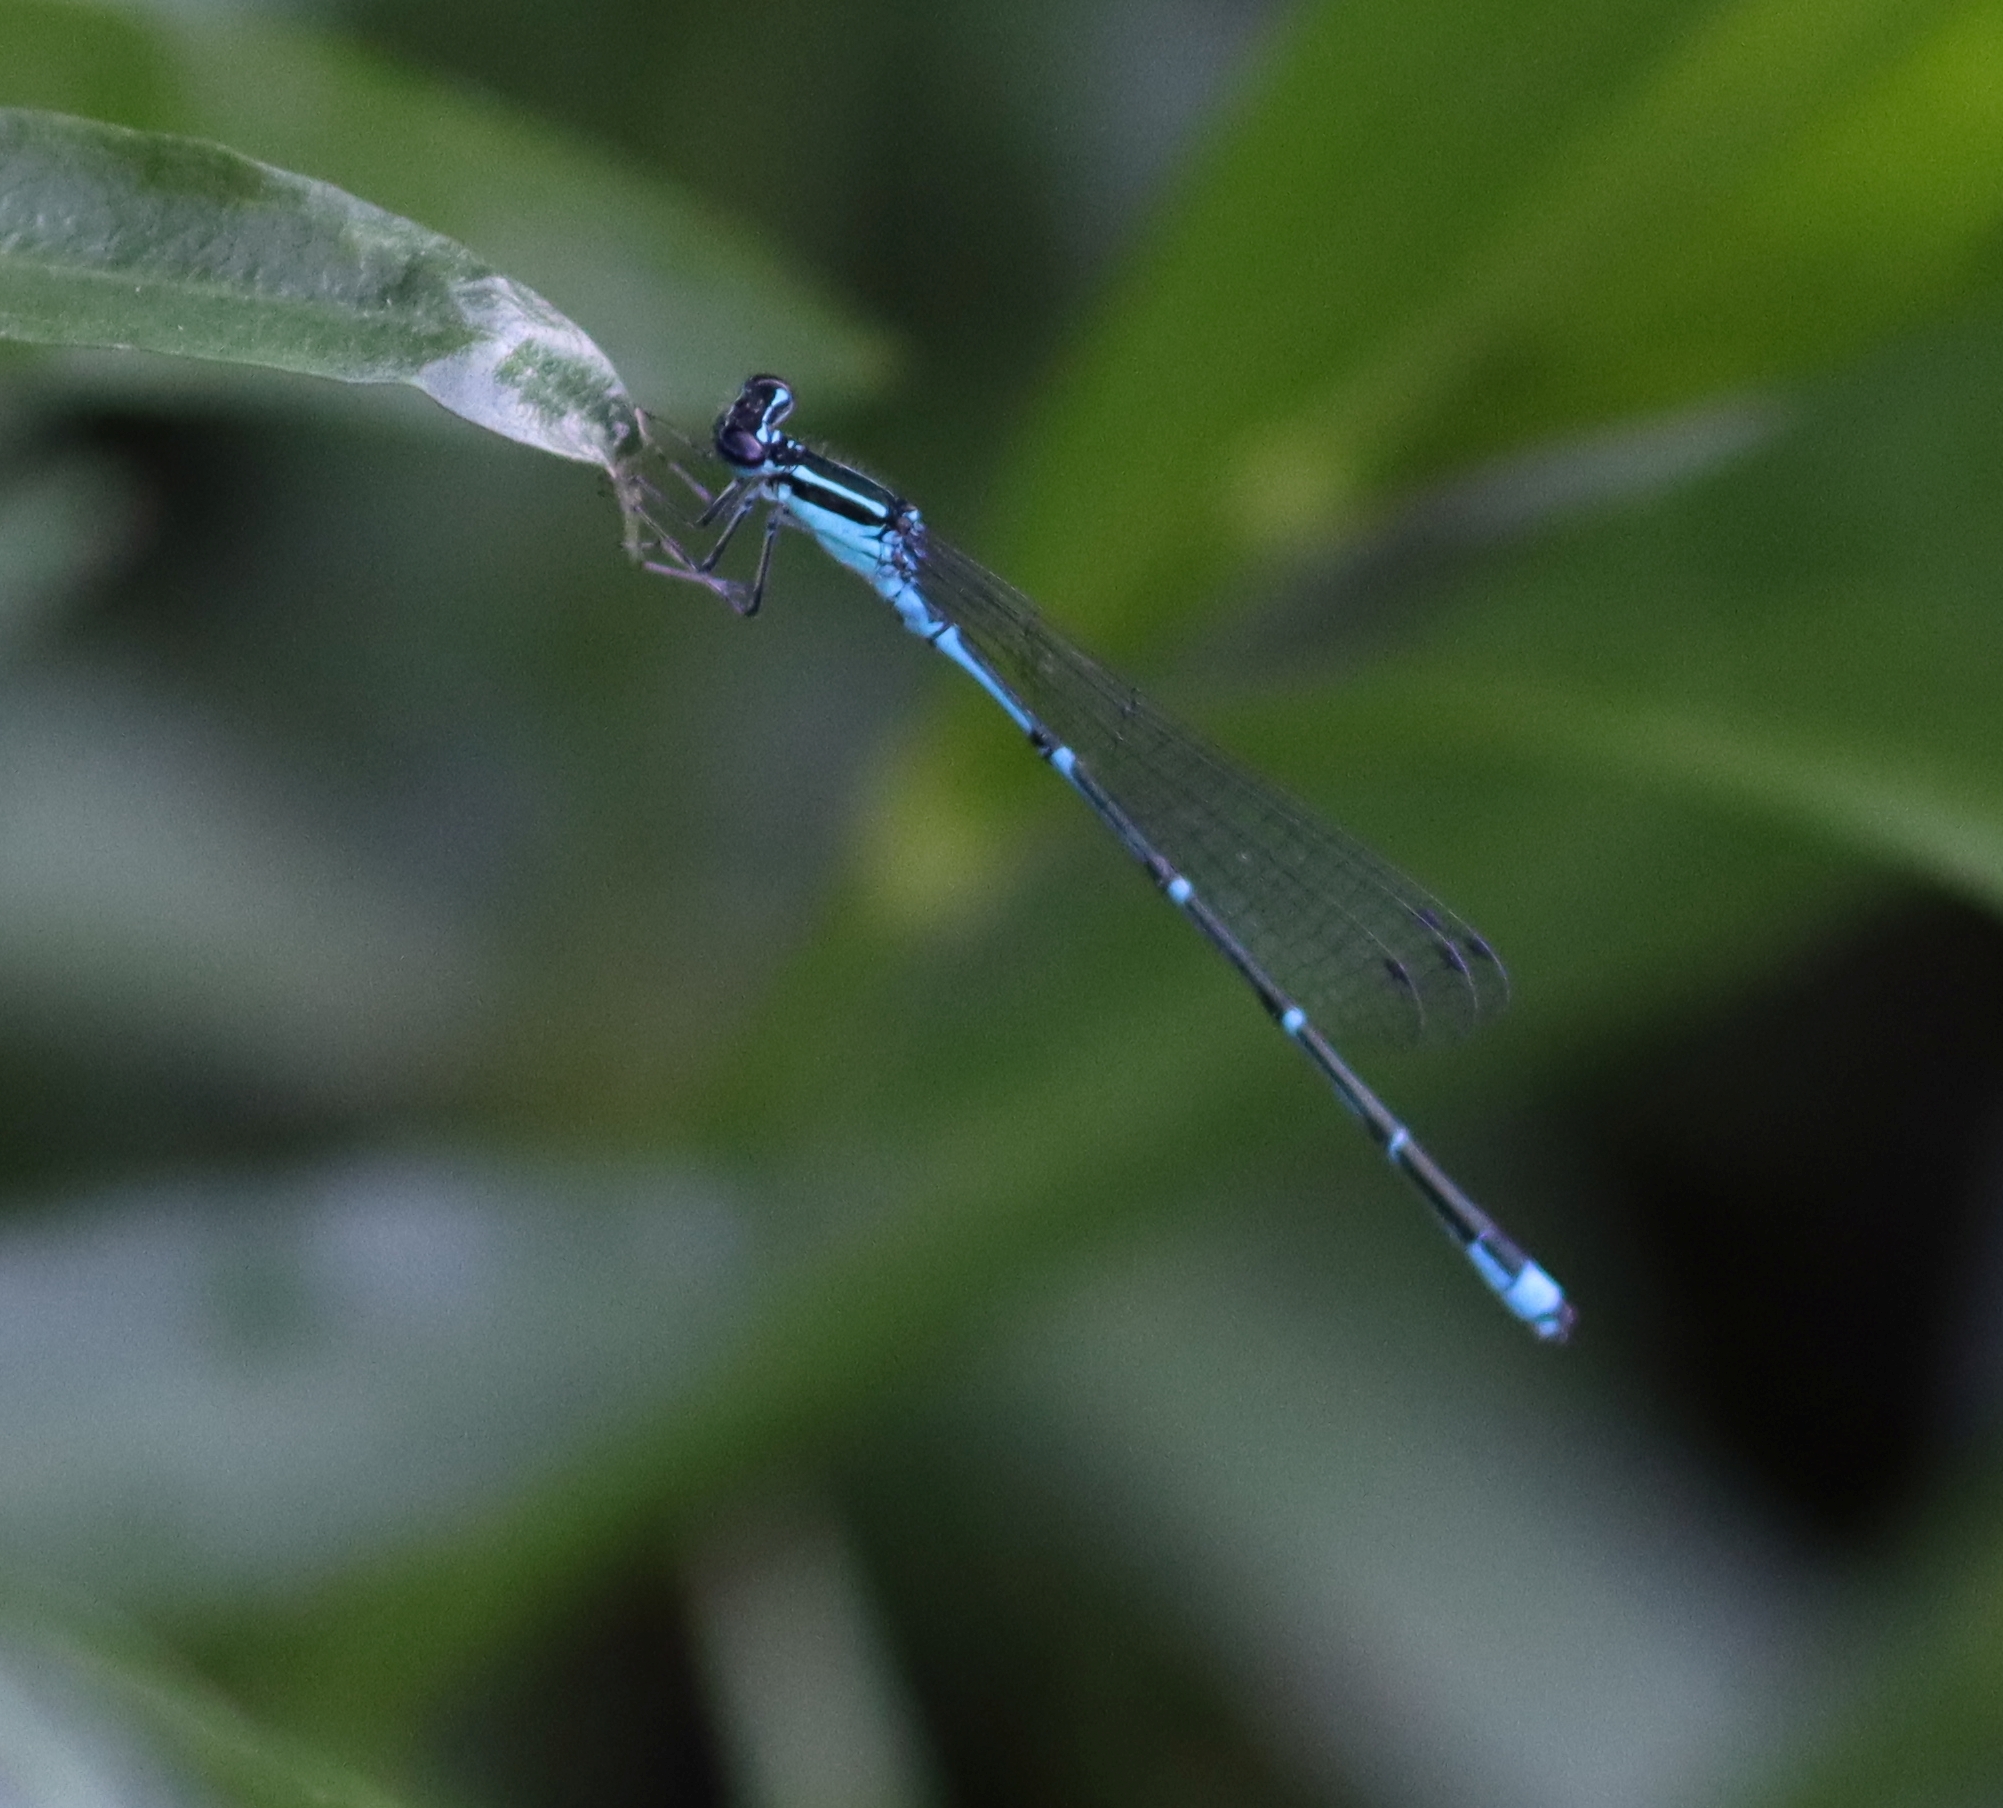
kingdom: Animalia
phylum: Arthropoda
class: Insecta
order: Odonata
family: Coenagrionidae
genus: Enallagma
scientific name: Enallagma exsulans
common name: Stream bluet
